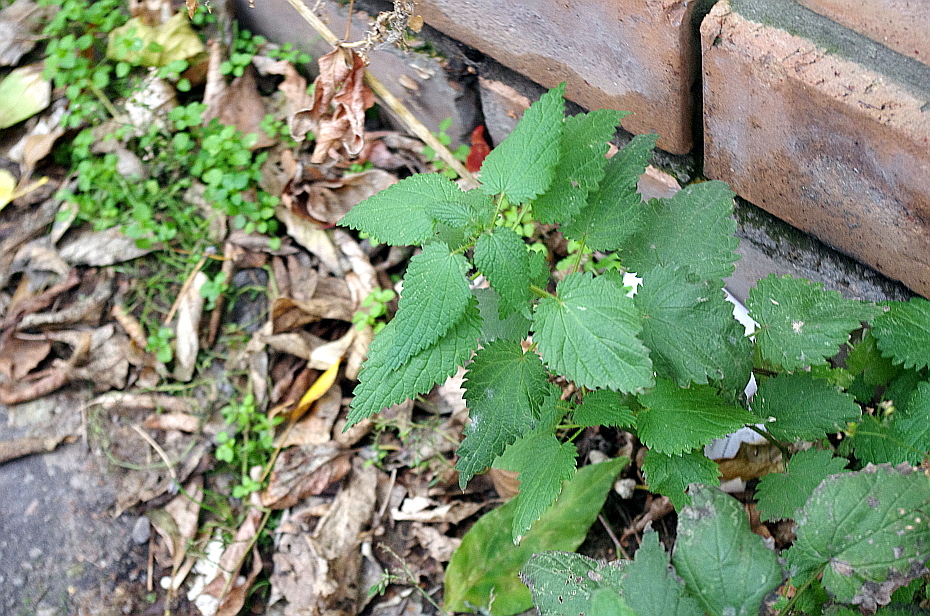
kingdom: Plantae
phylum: Tracheophyta
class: Magnoliopsida
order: Rosales
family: Urticaceae
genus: Urtica
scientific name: Urtica dioica
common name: Common nettle
